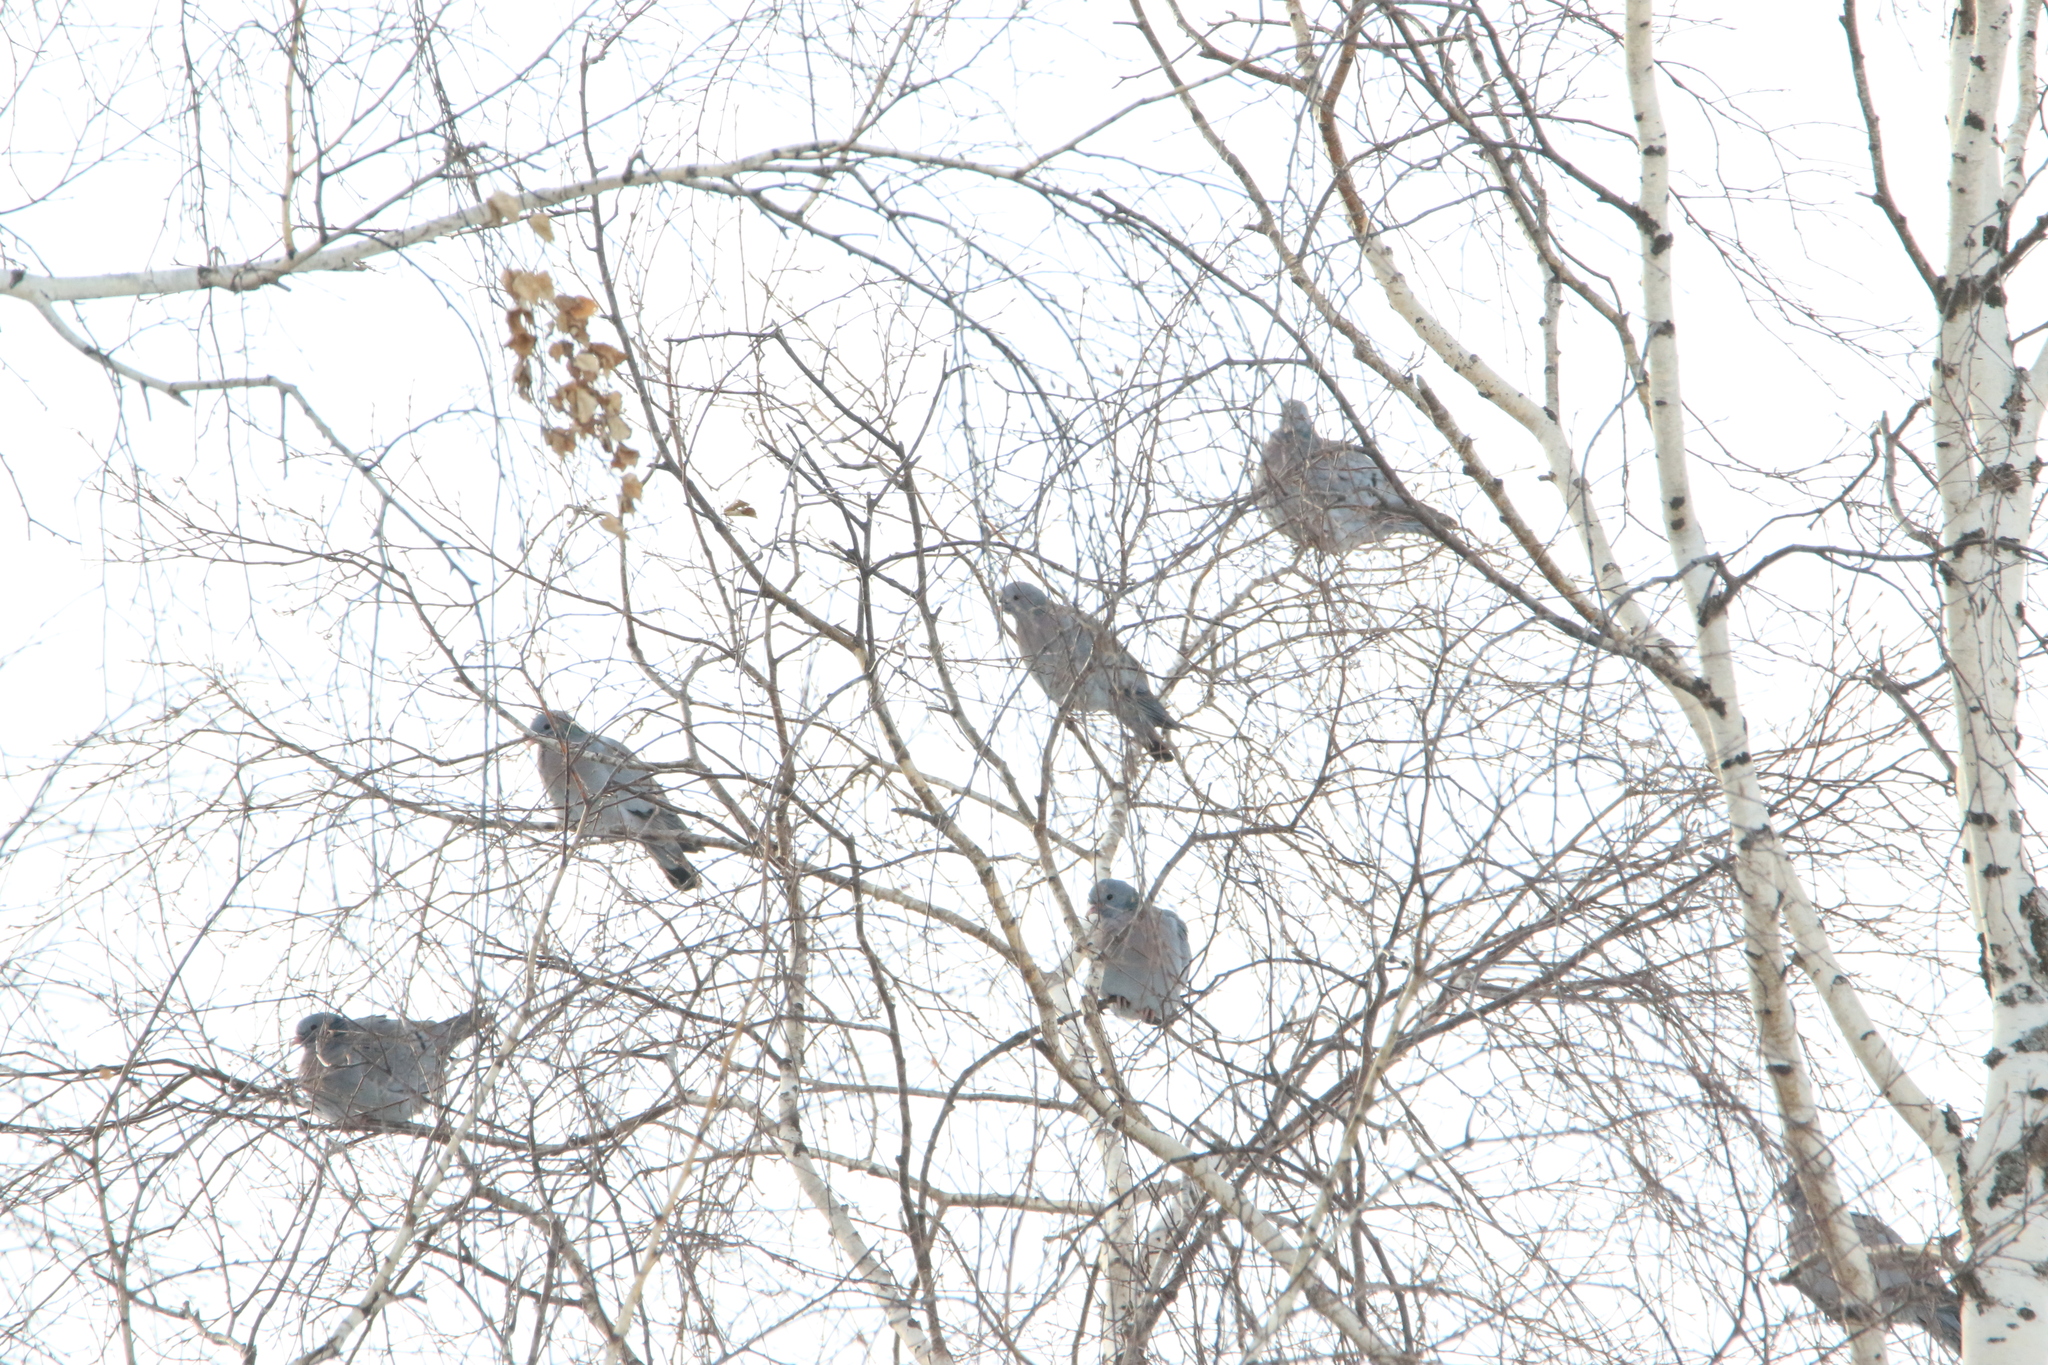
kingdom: Animalia
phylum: Chordata
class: Aves
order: Columbiformes
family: Columbidae
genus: Columba
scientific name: Columba oenas
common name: Stock dove
